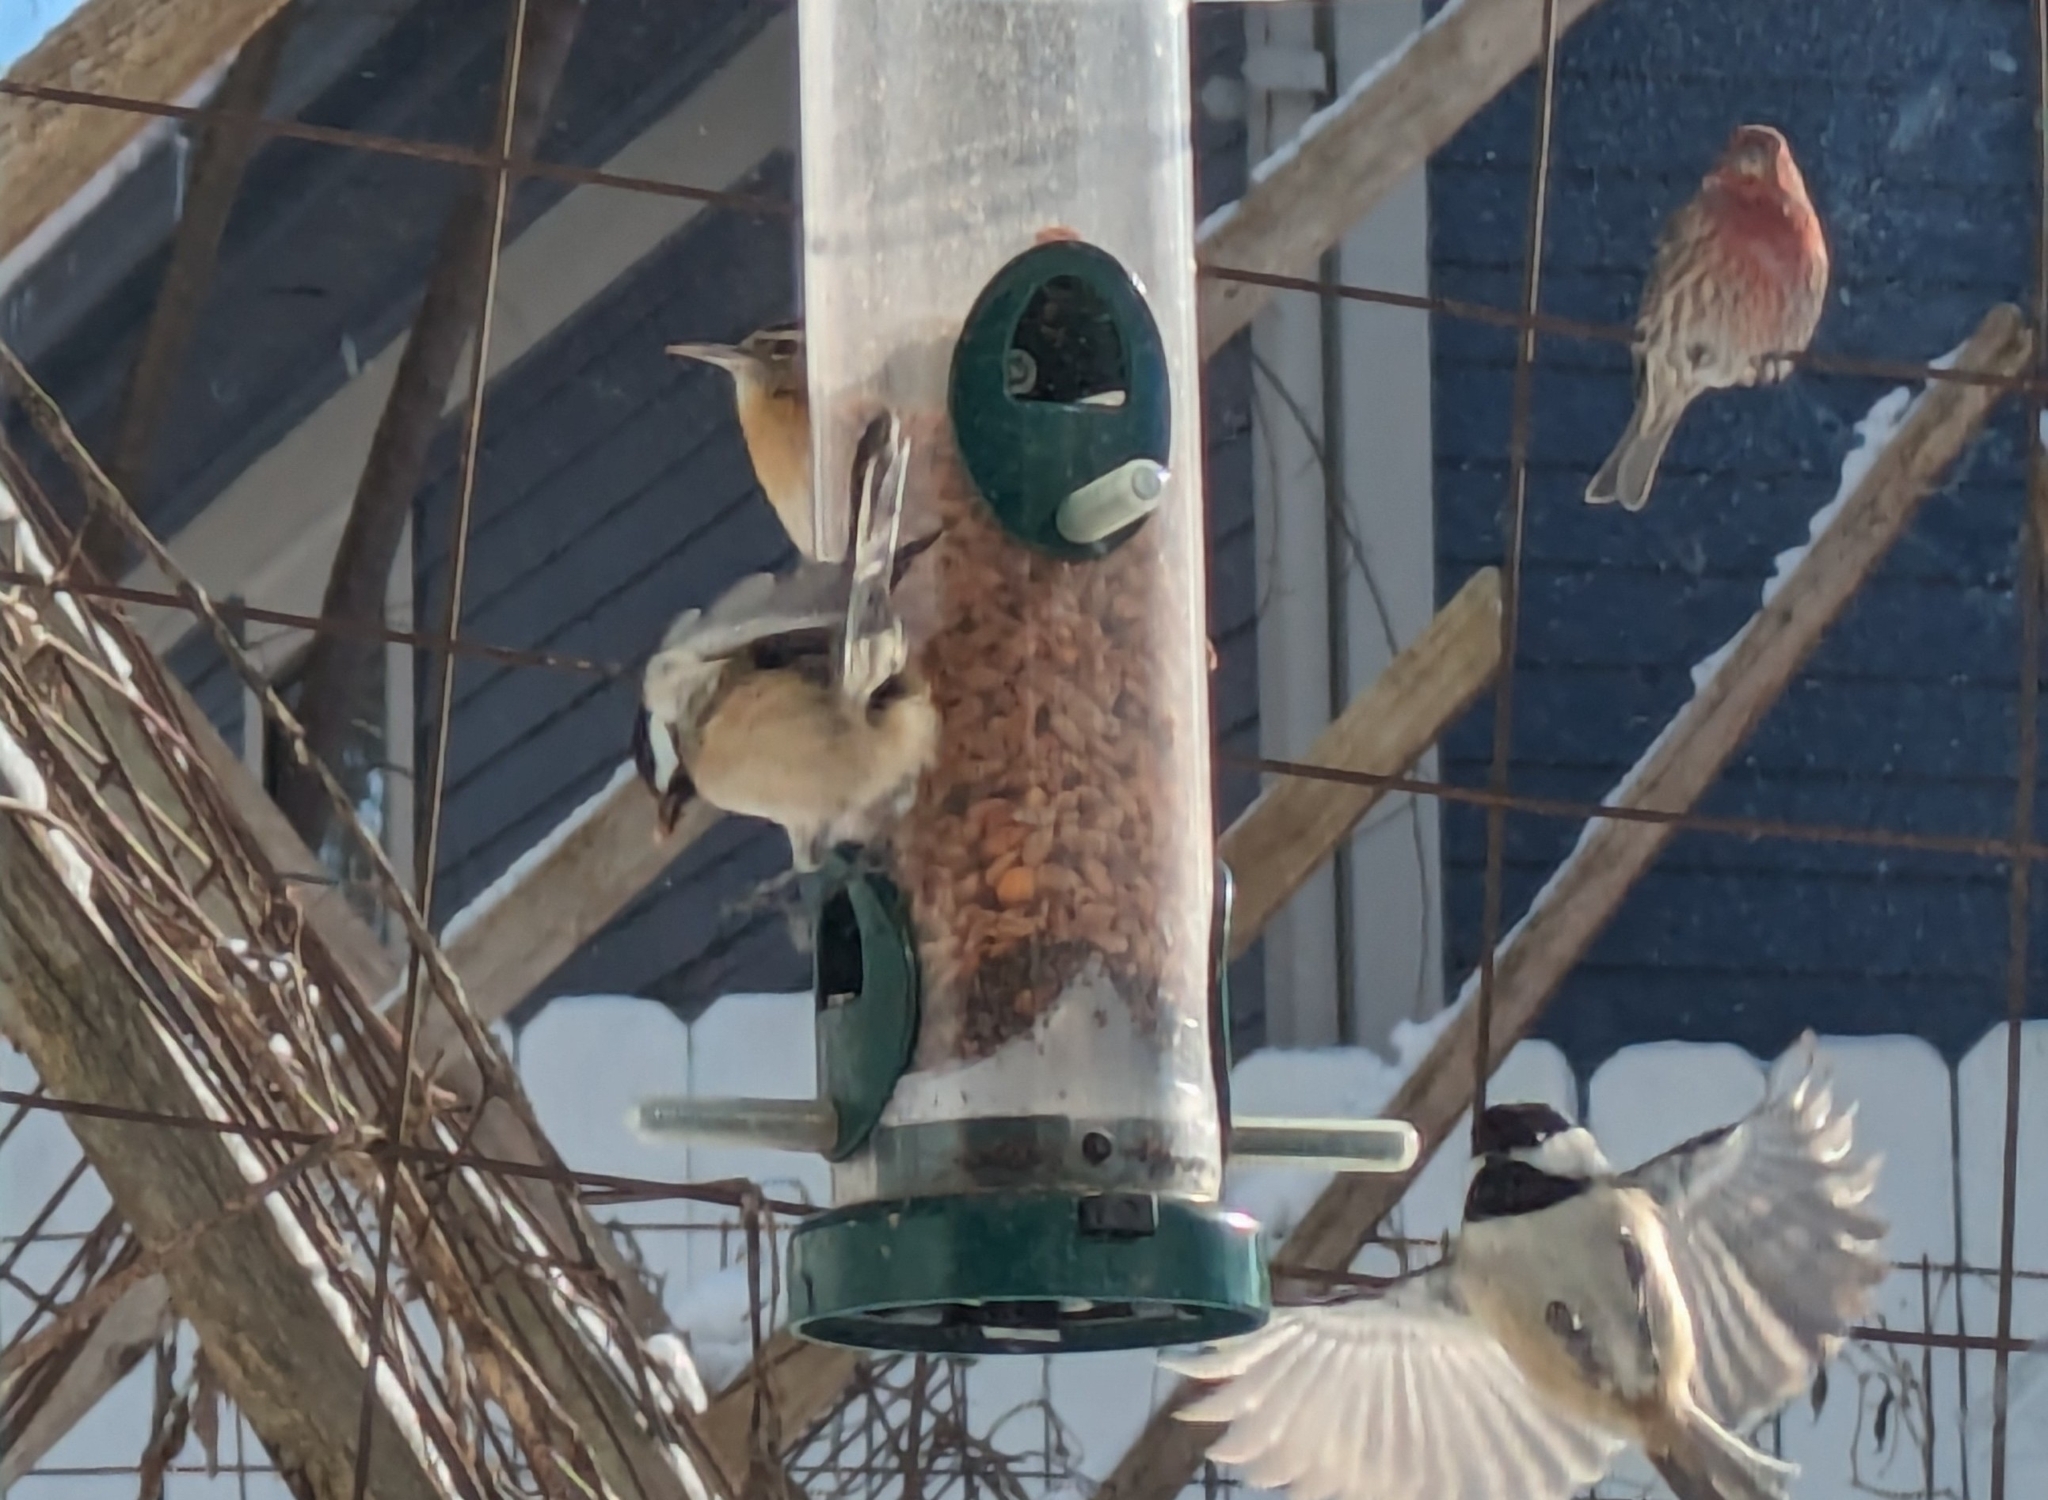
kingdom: Animalia
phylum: Chordata
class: Aves
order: Passeriformes
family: Paridae
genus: Poecile
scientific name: Poecile atricapillus
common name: Black-capped chickadee
